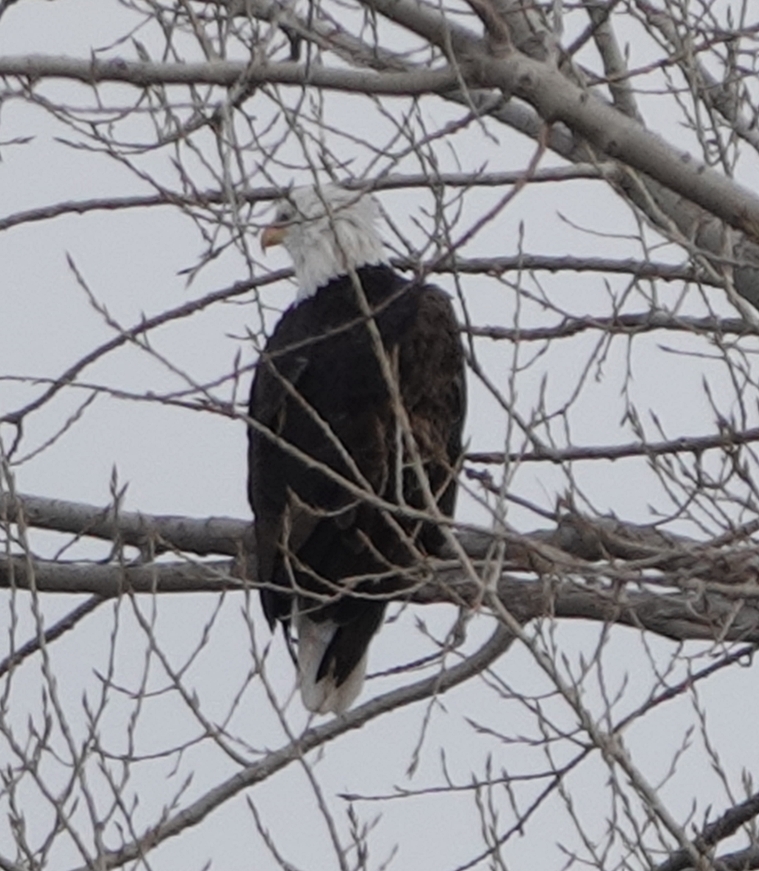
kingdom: Animalia
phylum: Chordata
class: Aves
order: Accipitriformes
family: Accipitridae
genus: Haliaeetus
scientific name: Haliaeetus leucocephalus
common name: Bald eagle
